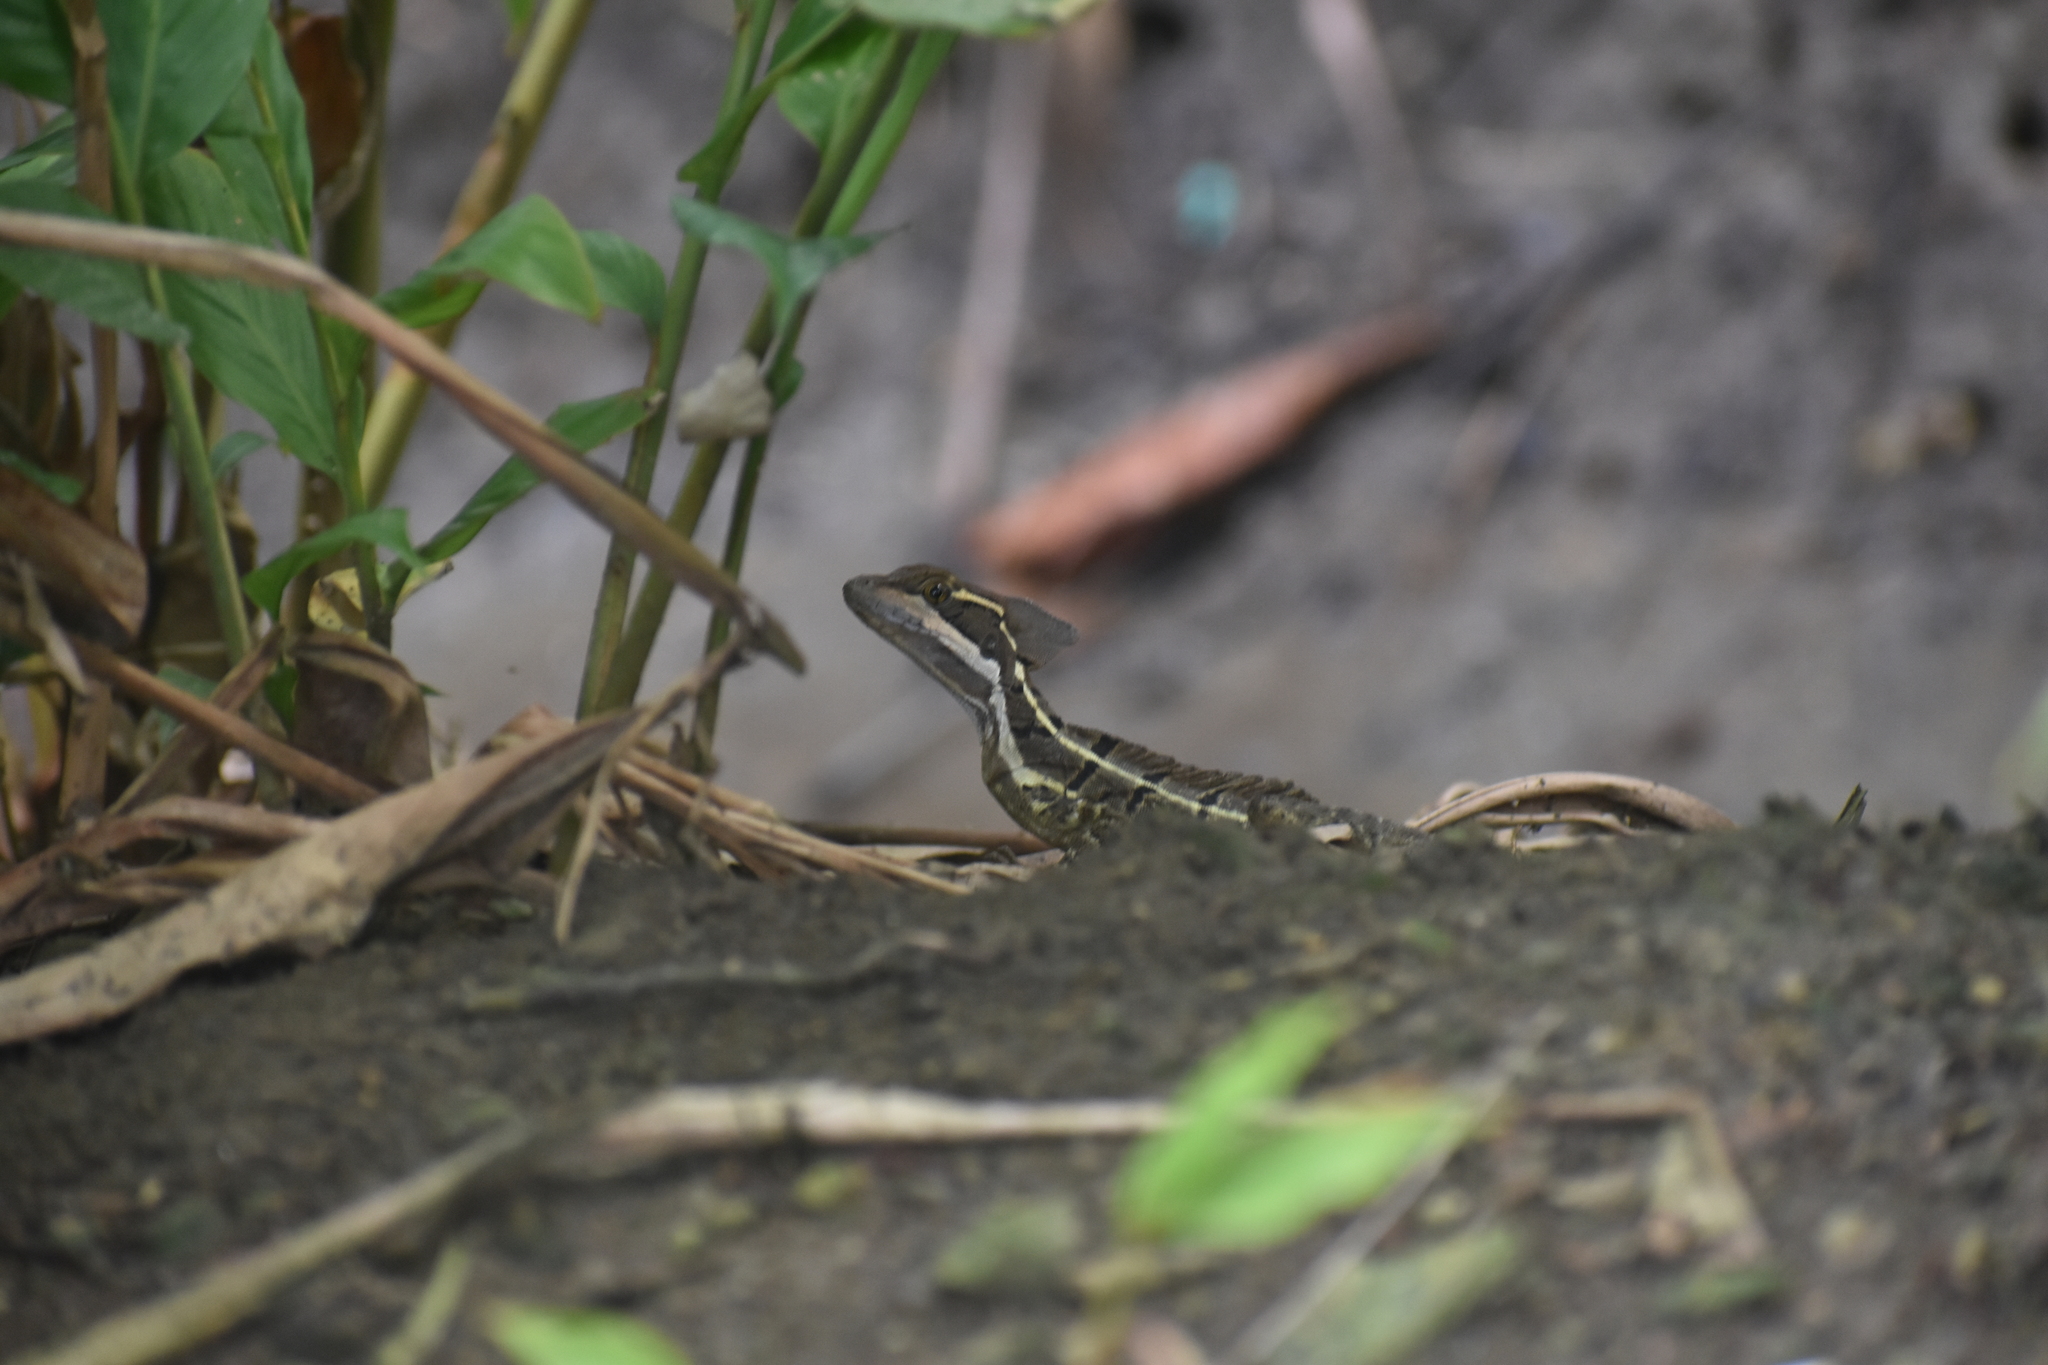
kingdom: Animalia
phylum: Chordata
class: Squamata
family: Corytophanidae
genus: Basiliscus
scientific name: Basiliscus basiliscus
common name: Common basilisk
